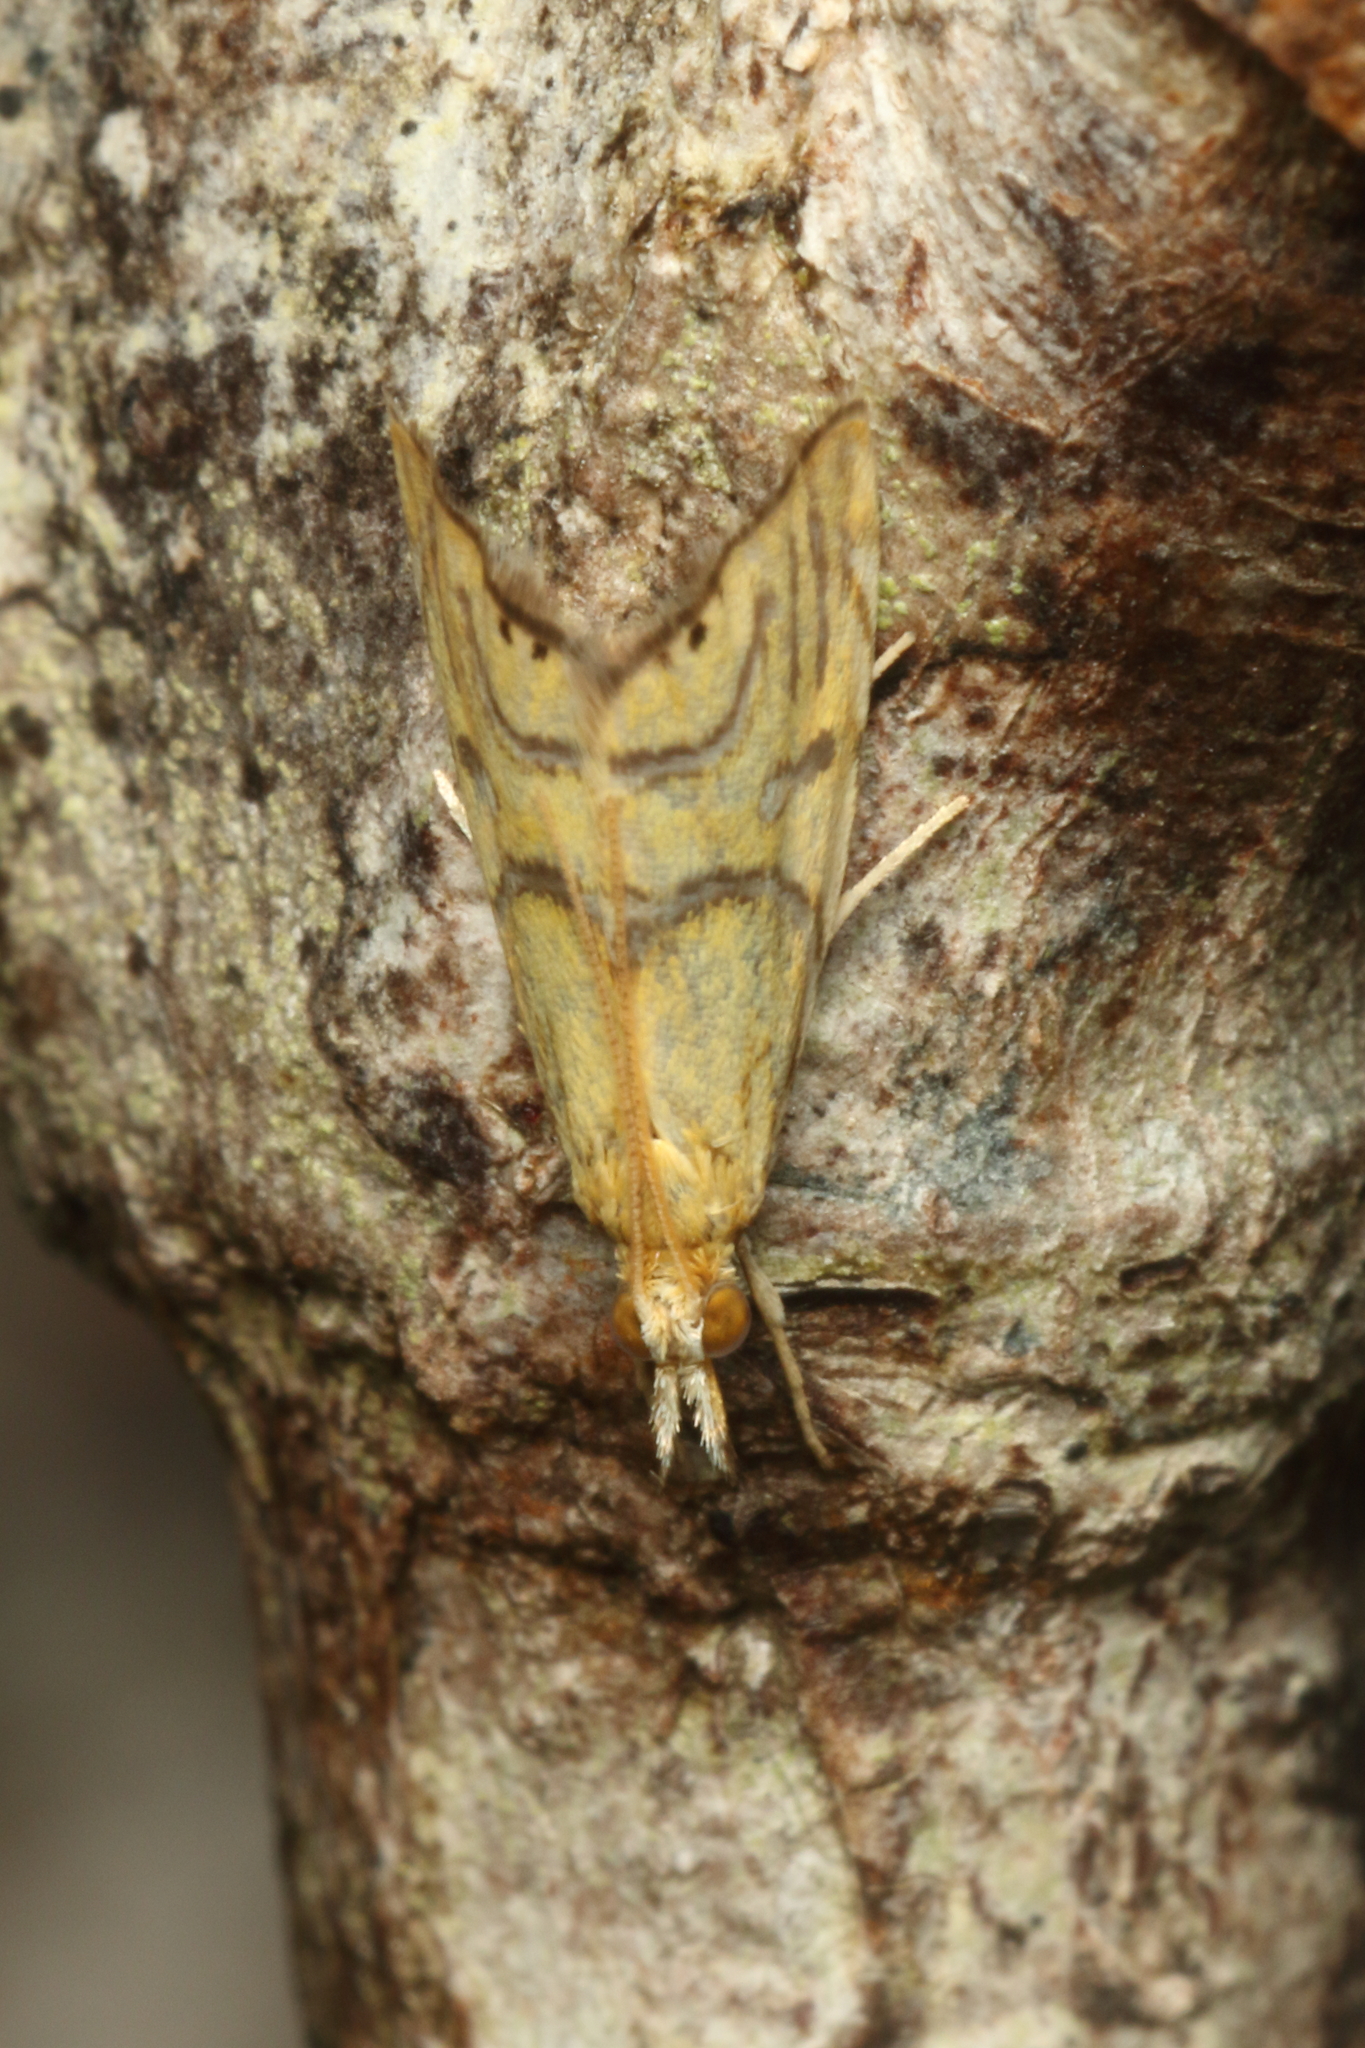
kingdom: Animalia
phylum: Arthropoda
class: Insecta
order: Lepidoptera
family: Crambidae
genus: Glaucocharis
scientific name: Glaucocharis auriscriptella
